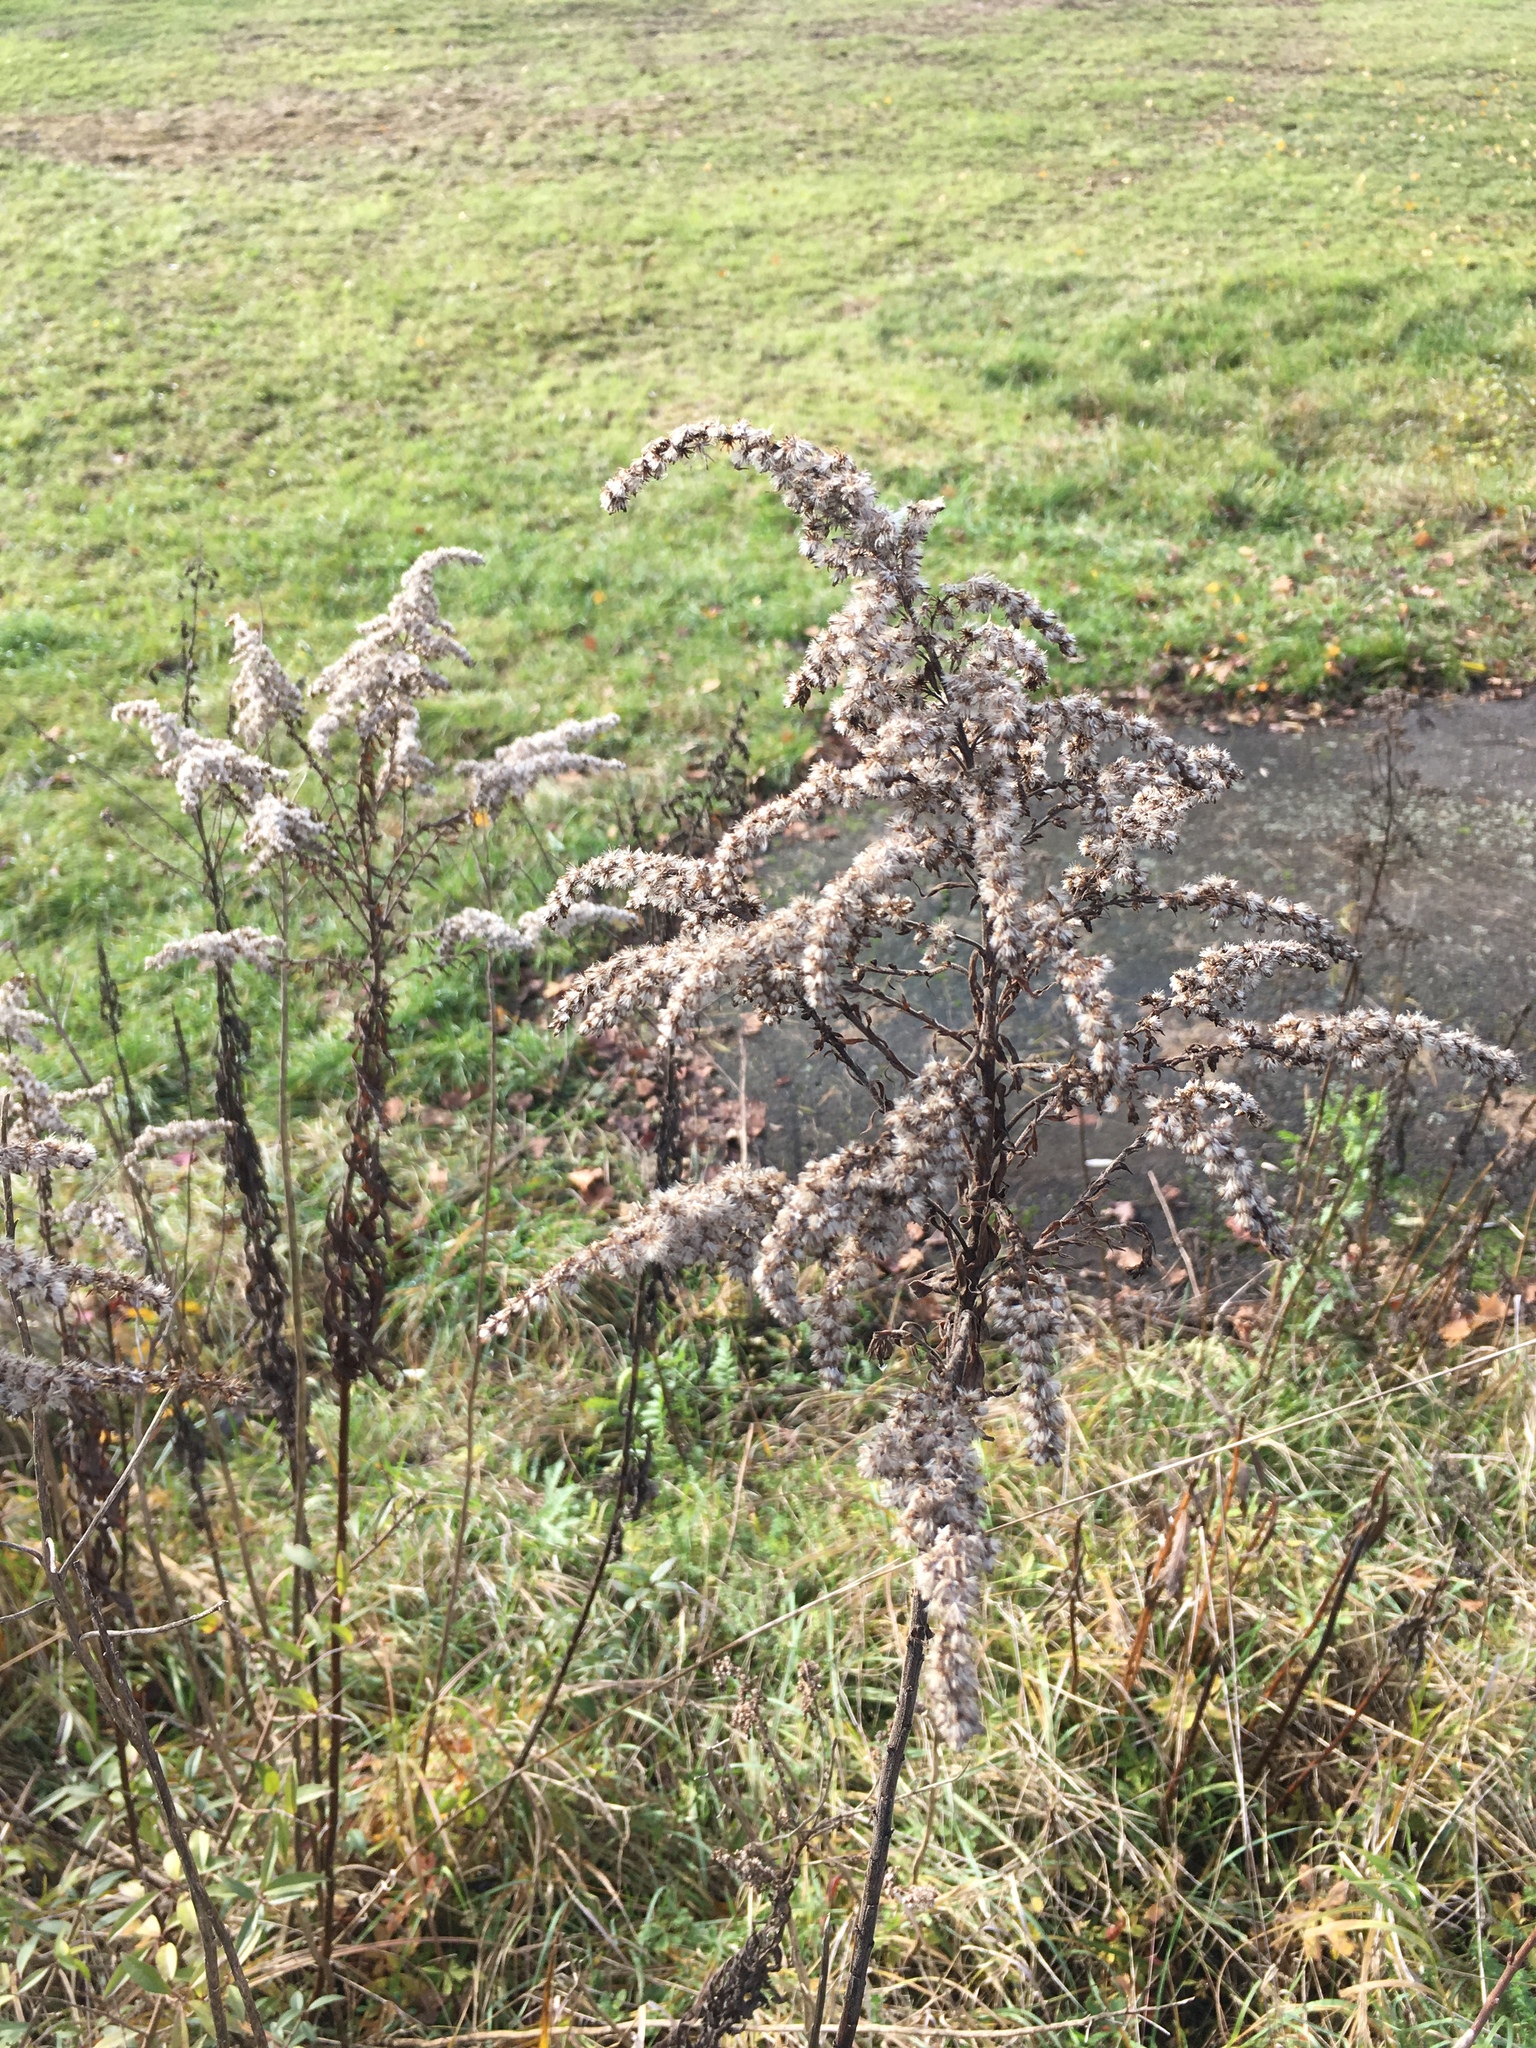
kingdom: Plantae
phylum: Tracheophyta
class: Magnoliopsida
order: Asterales
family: Asteraceae
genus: Solidago
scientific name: Solidago canadensis
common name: Canada goldenrod
